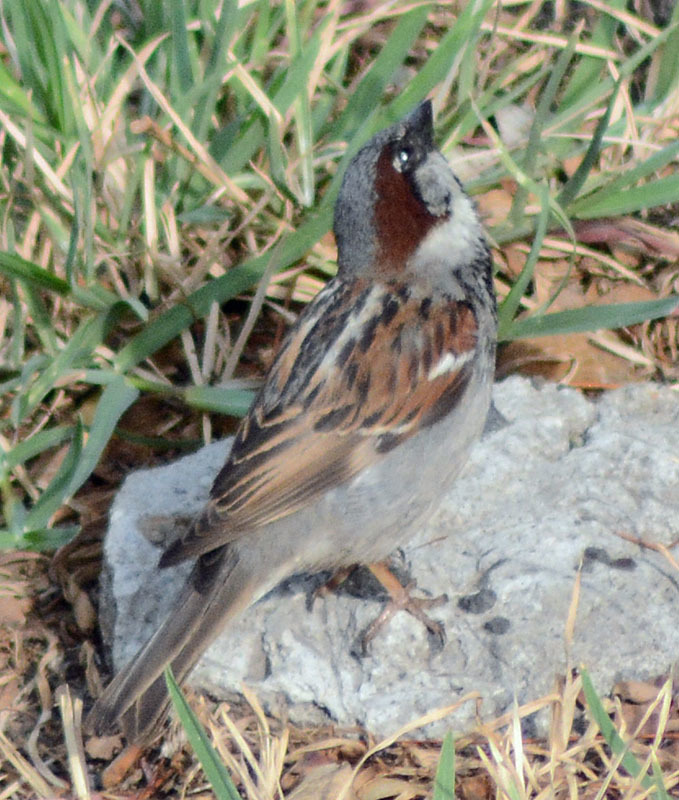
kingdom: Animalia
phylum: Chordata
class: Aves
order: Passeriformes
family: Passeridae
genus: Passer
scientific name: Passer domesticus
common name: House sparrow
